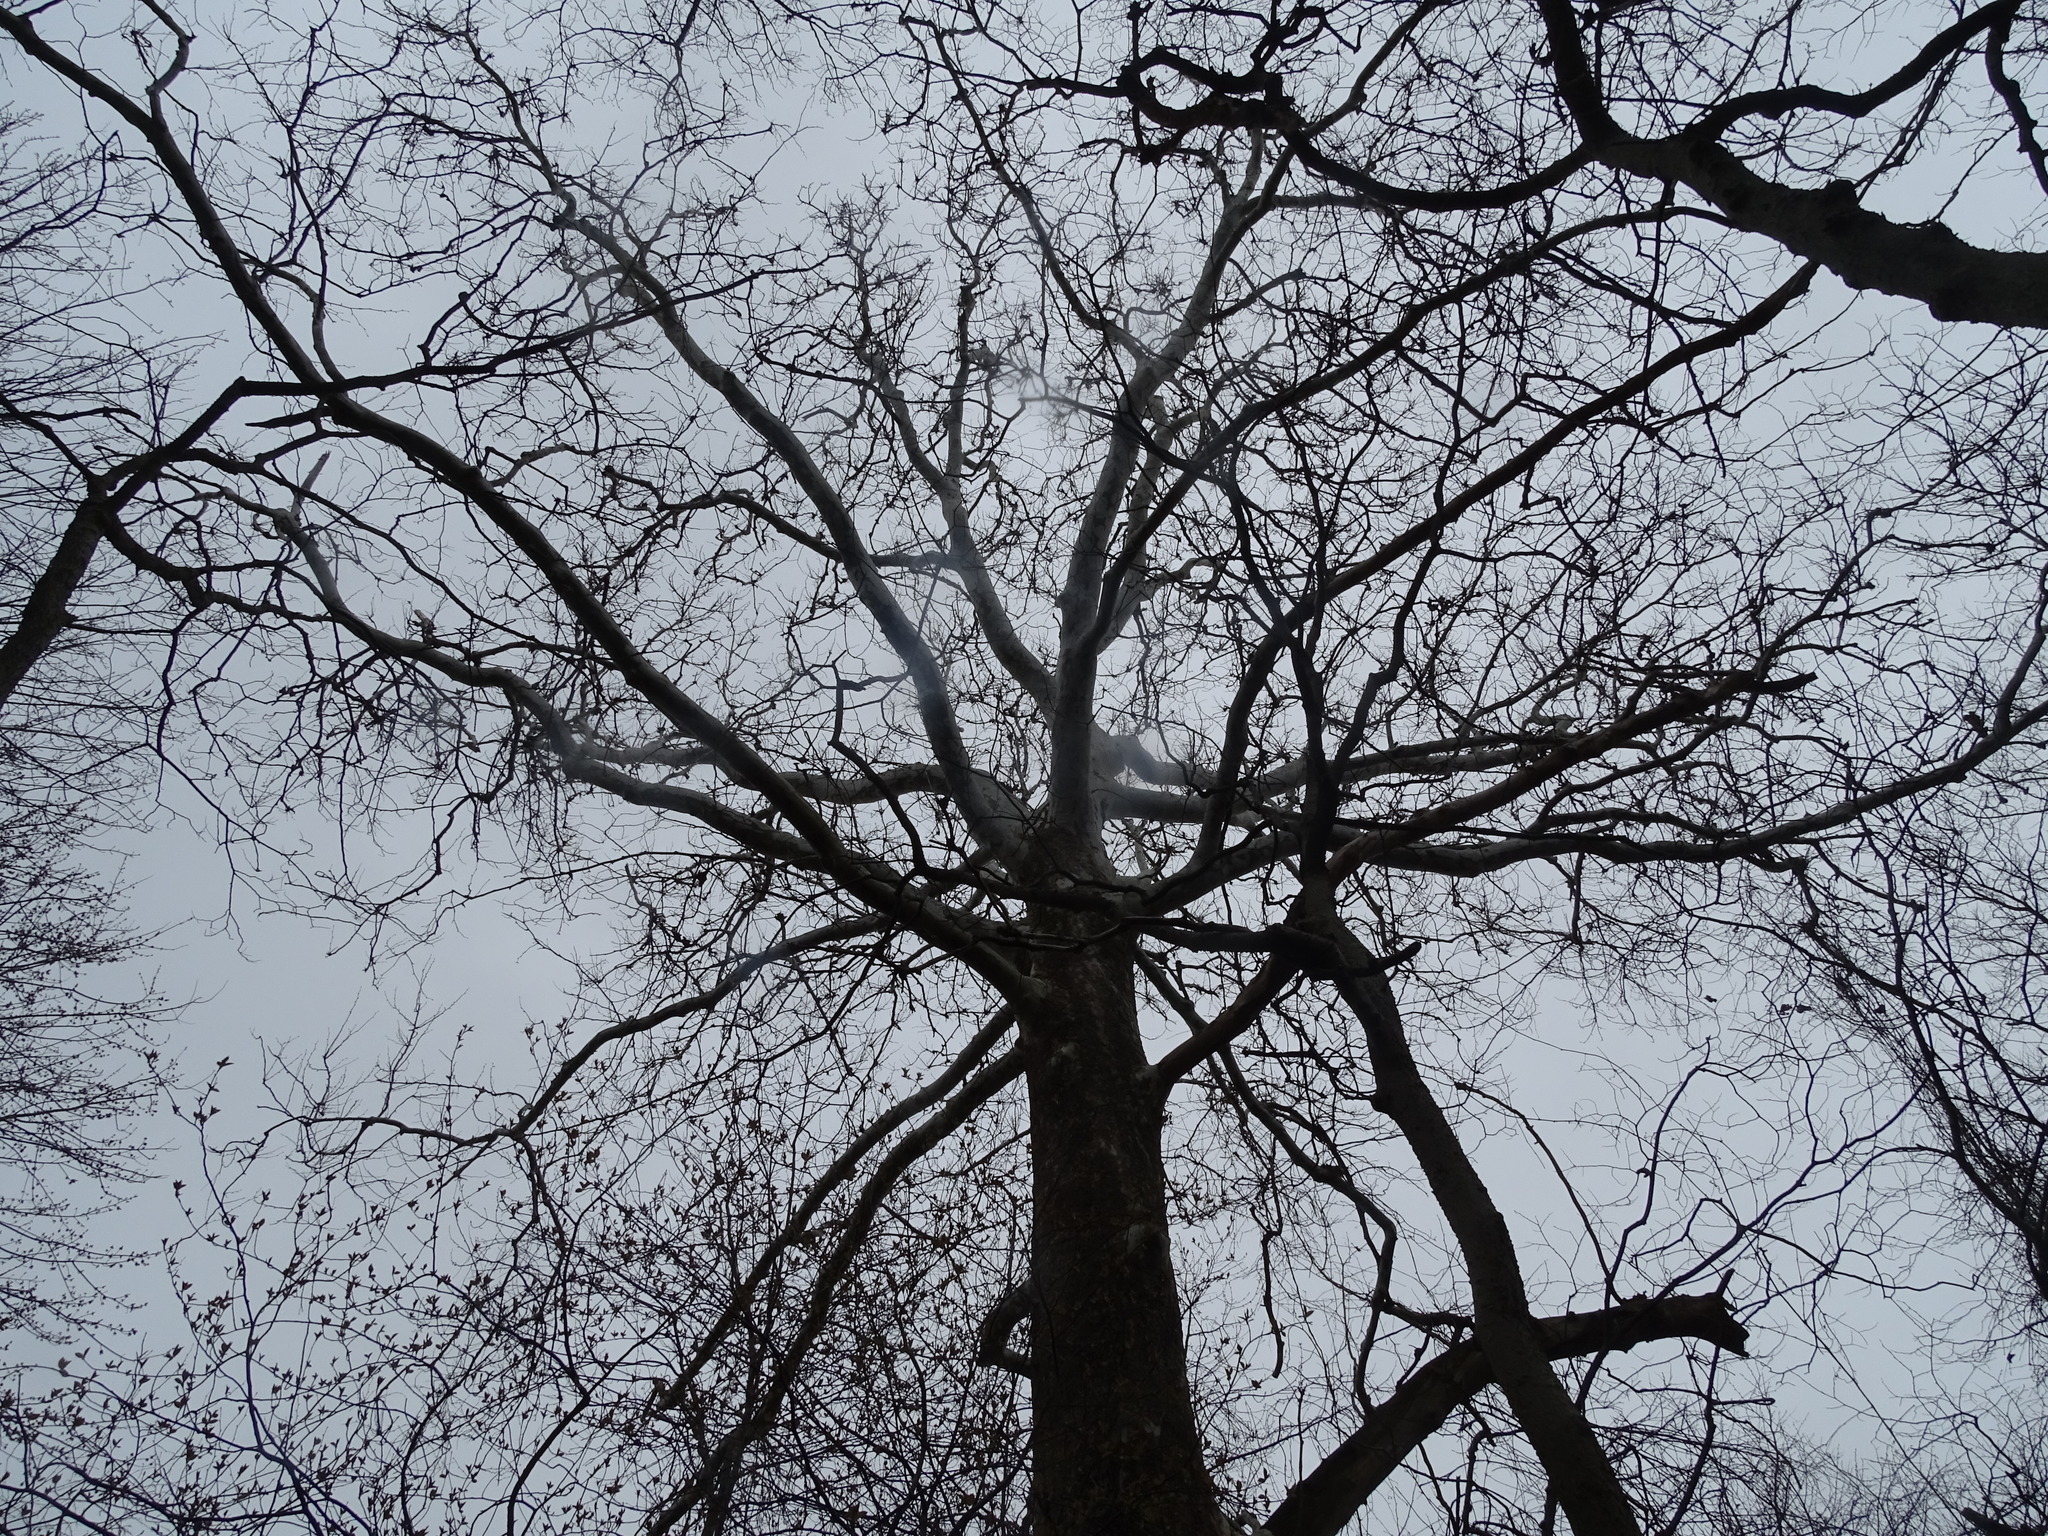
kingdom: Plantae
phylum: Tracheophyta
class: Magnoliopsida
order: Proteales
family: Platanaceae
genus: Platanus
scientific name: Platanus occidentalis
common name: American sycamore
